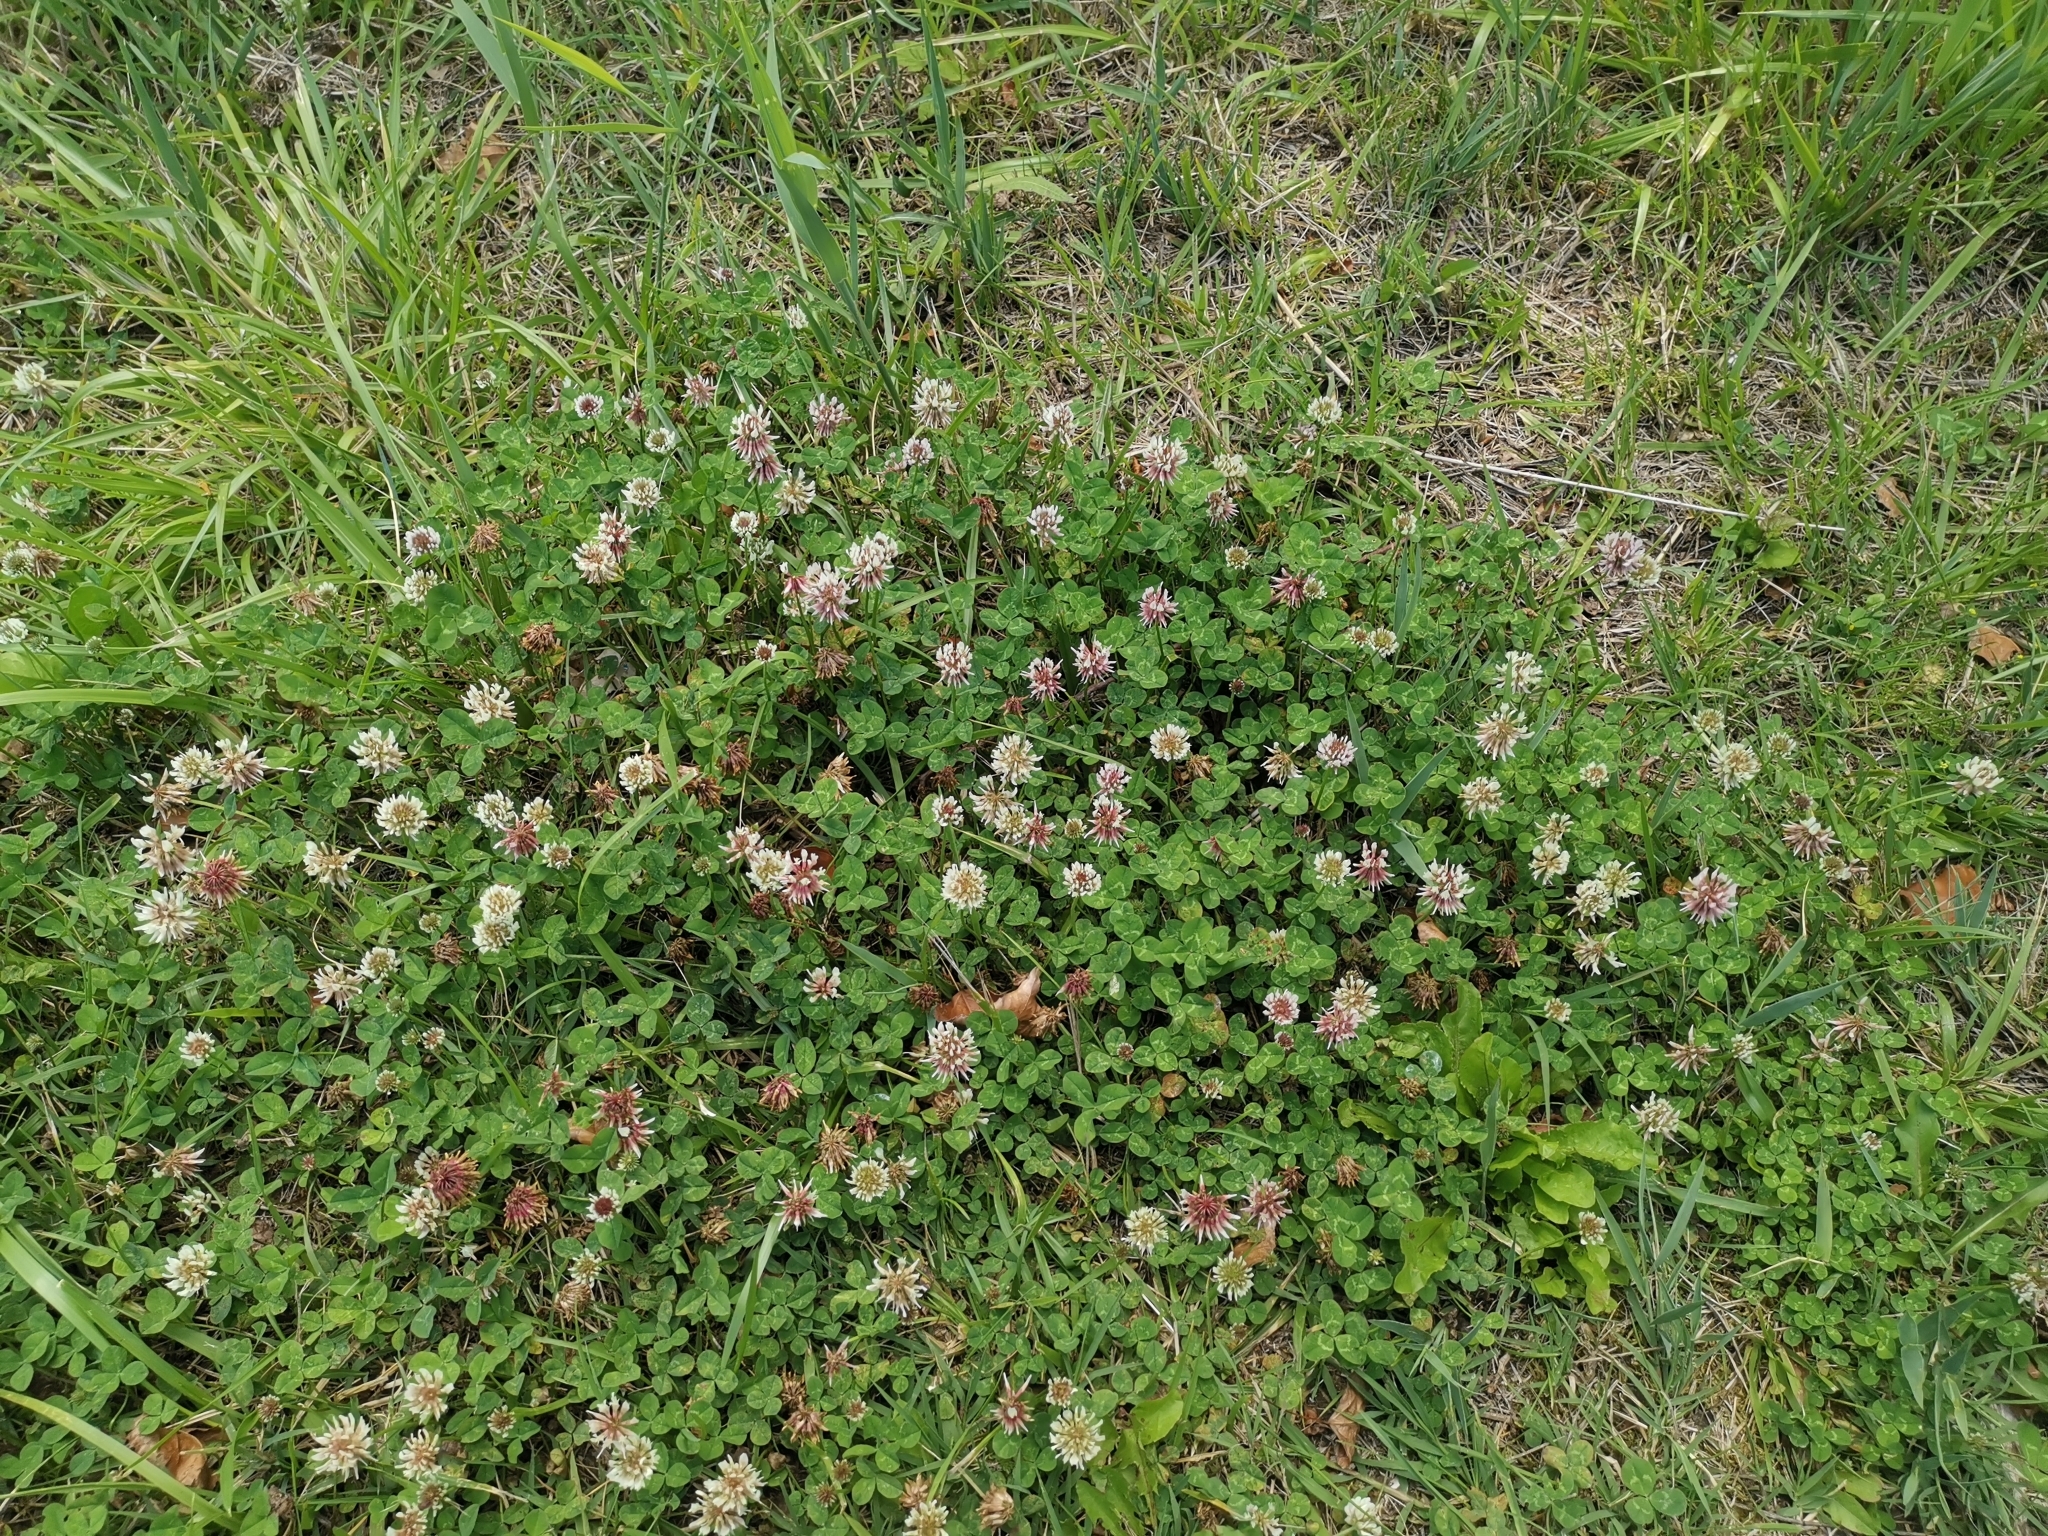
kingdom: Plantae
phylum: Tracheophyta
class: Magnoliopsida
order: Fabales
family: Fabaceae
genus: Trifolium
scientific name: Trifolium repens
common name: White clover
